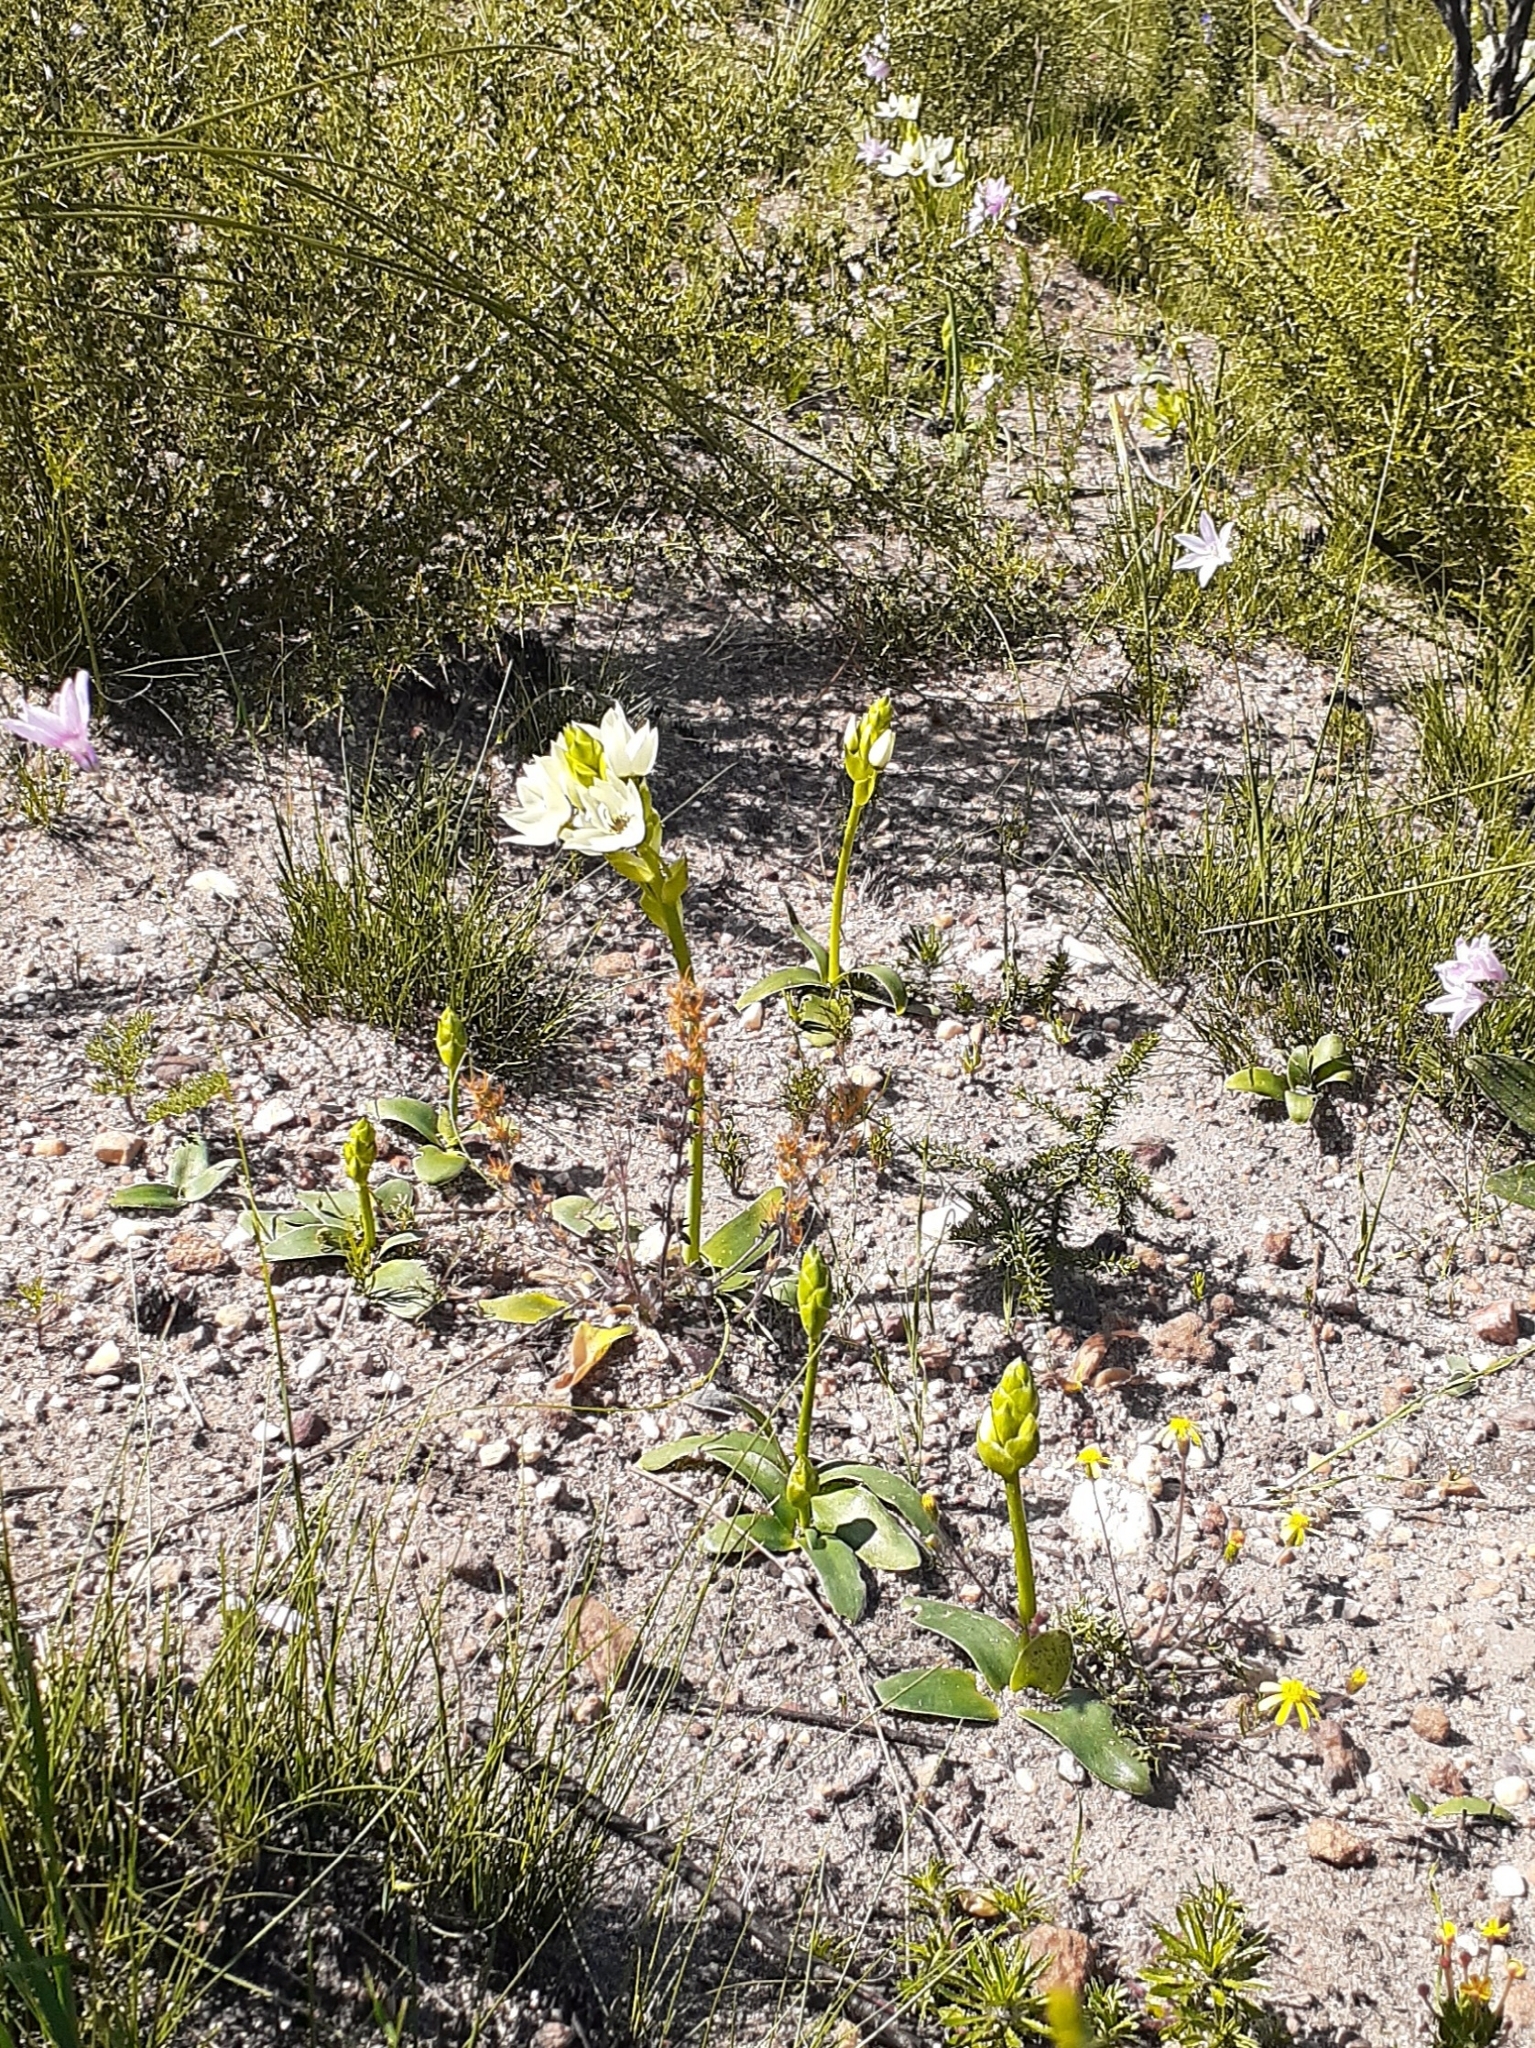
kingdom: Plantae
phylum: Tracheophyta
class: Liliopsida
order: Asparagales
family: Asparagaceae
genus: Ornithogalum
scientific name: Ornithogalum thyrsoides
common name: Chincherinchee
